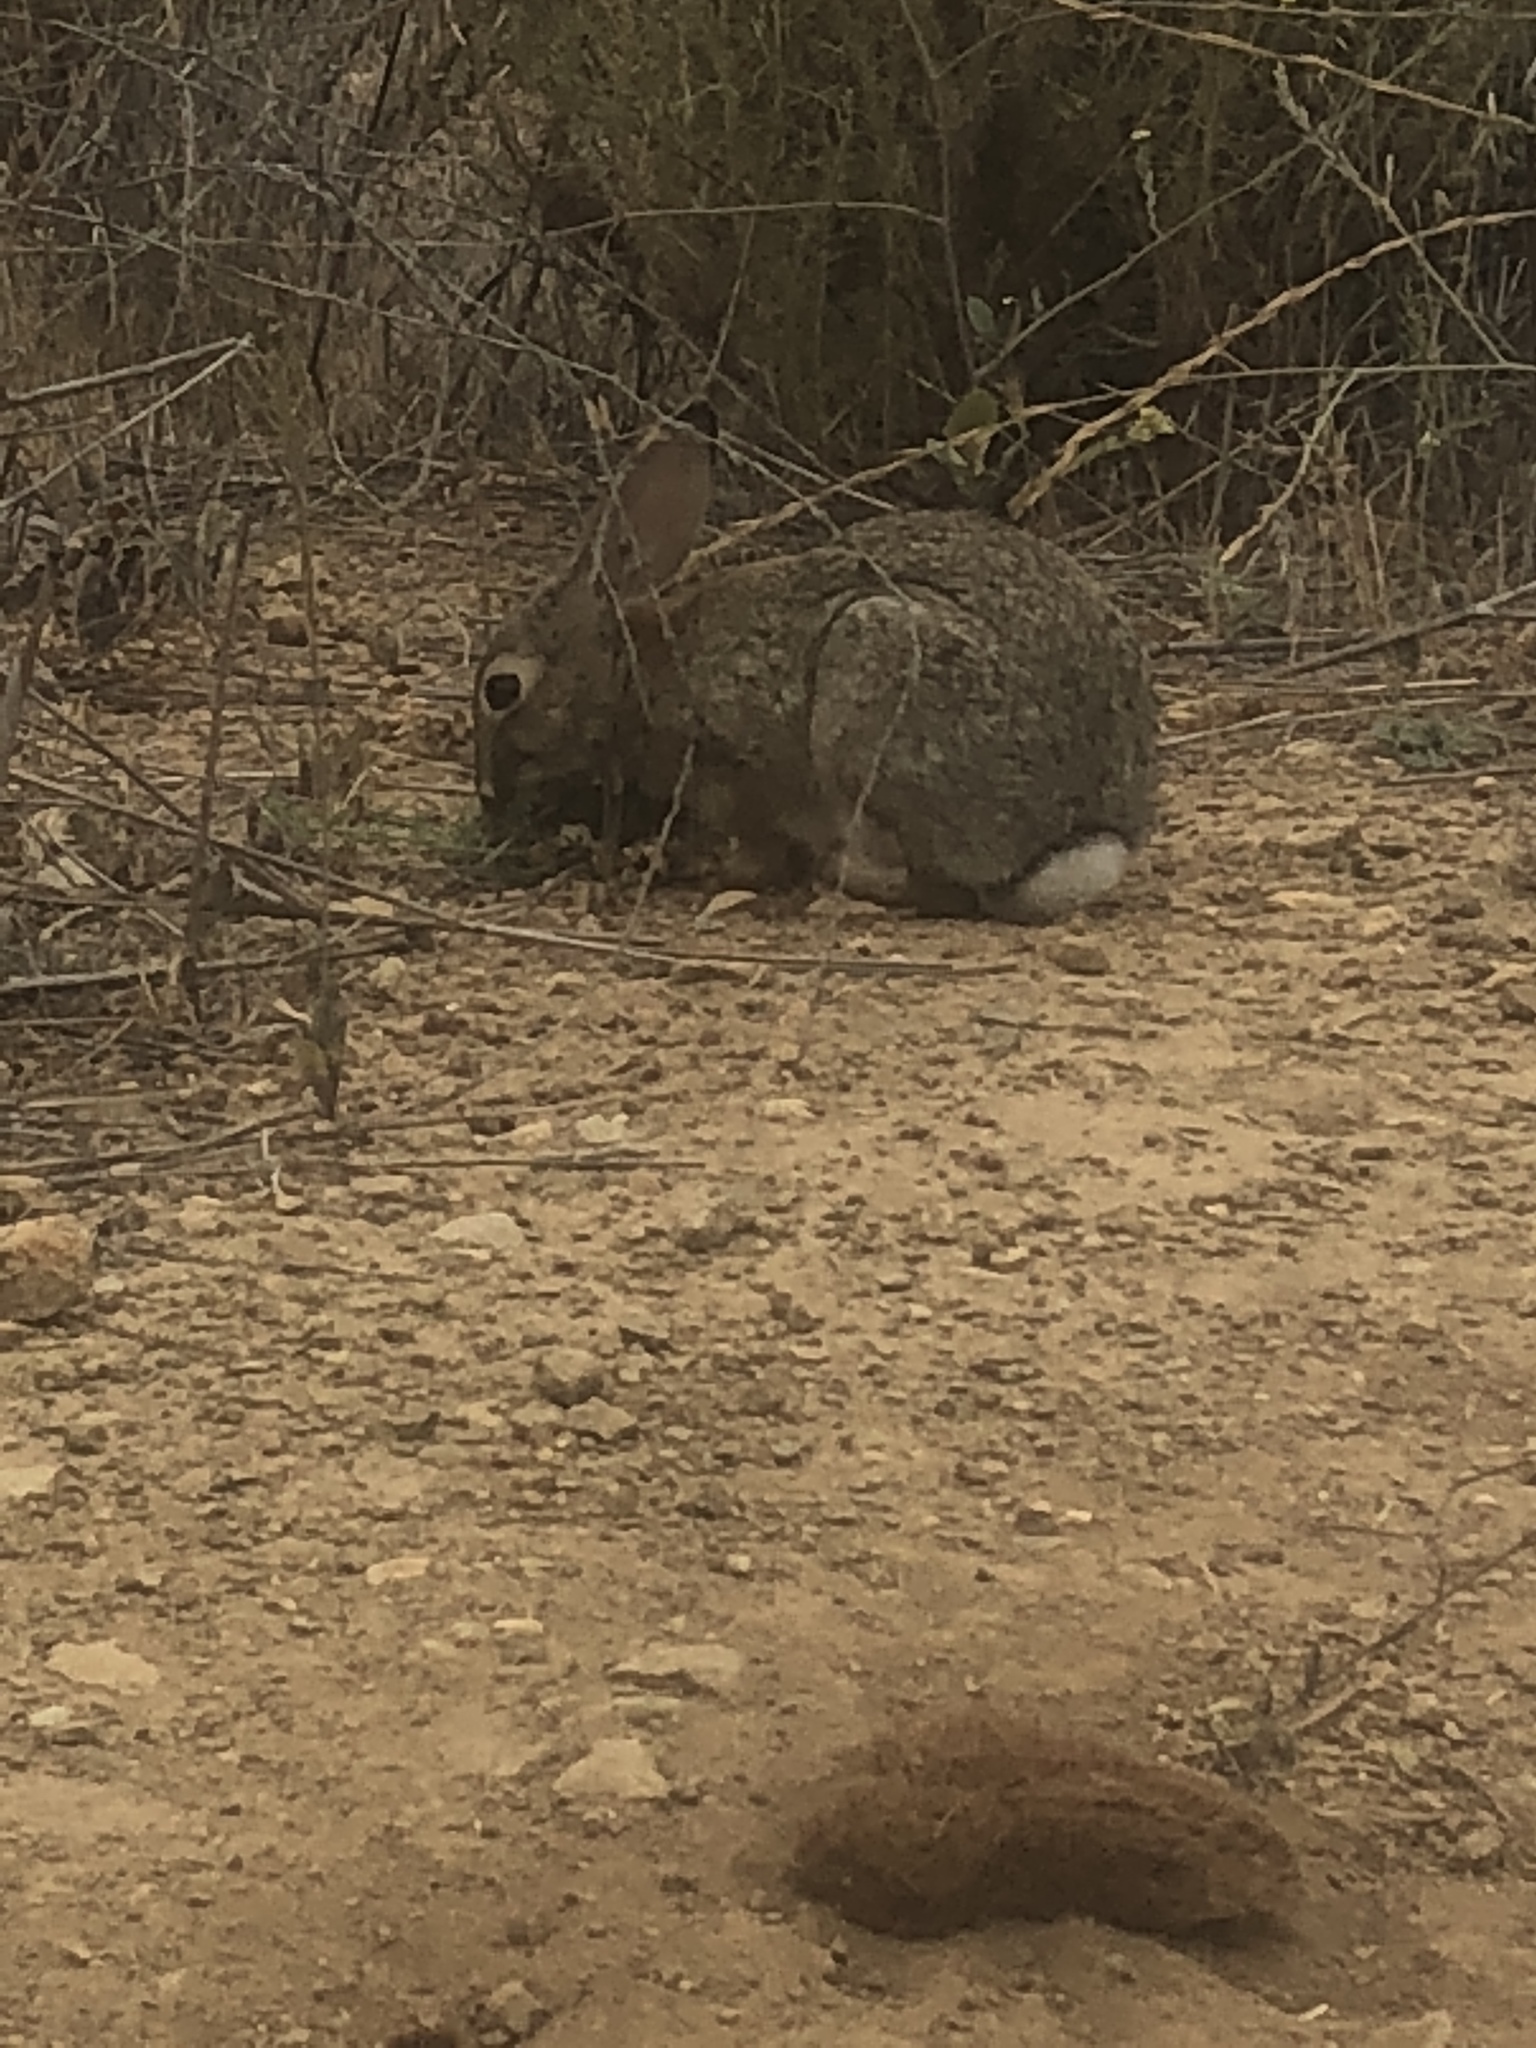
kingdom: Animalia
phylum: Chordata
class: Mammalia
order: Lagomorpha
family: Leporidae
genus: Sylvilagus
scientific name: Sylvilagus audubonii
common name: Desert cottontail
